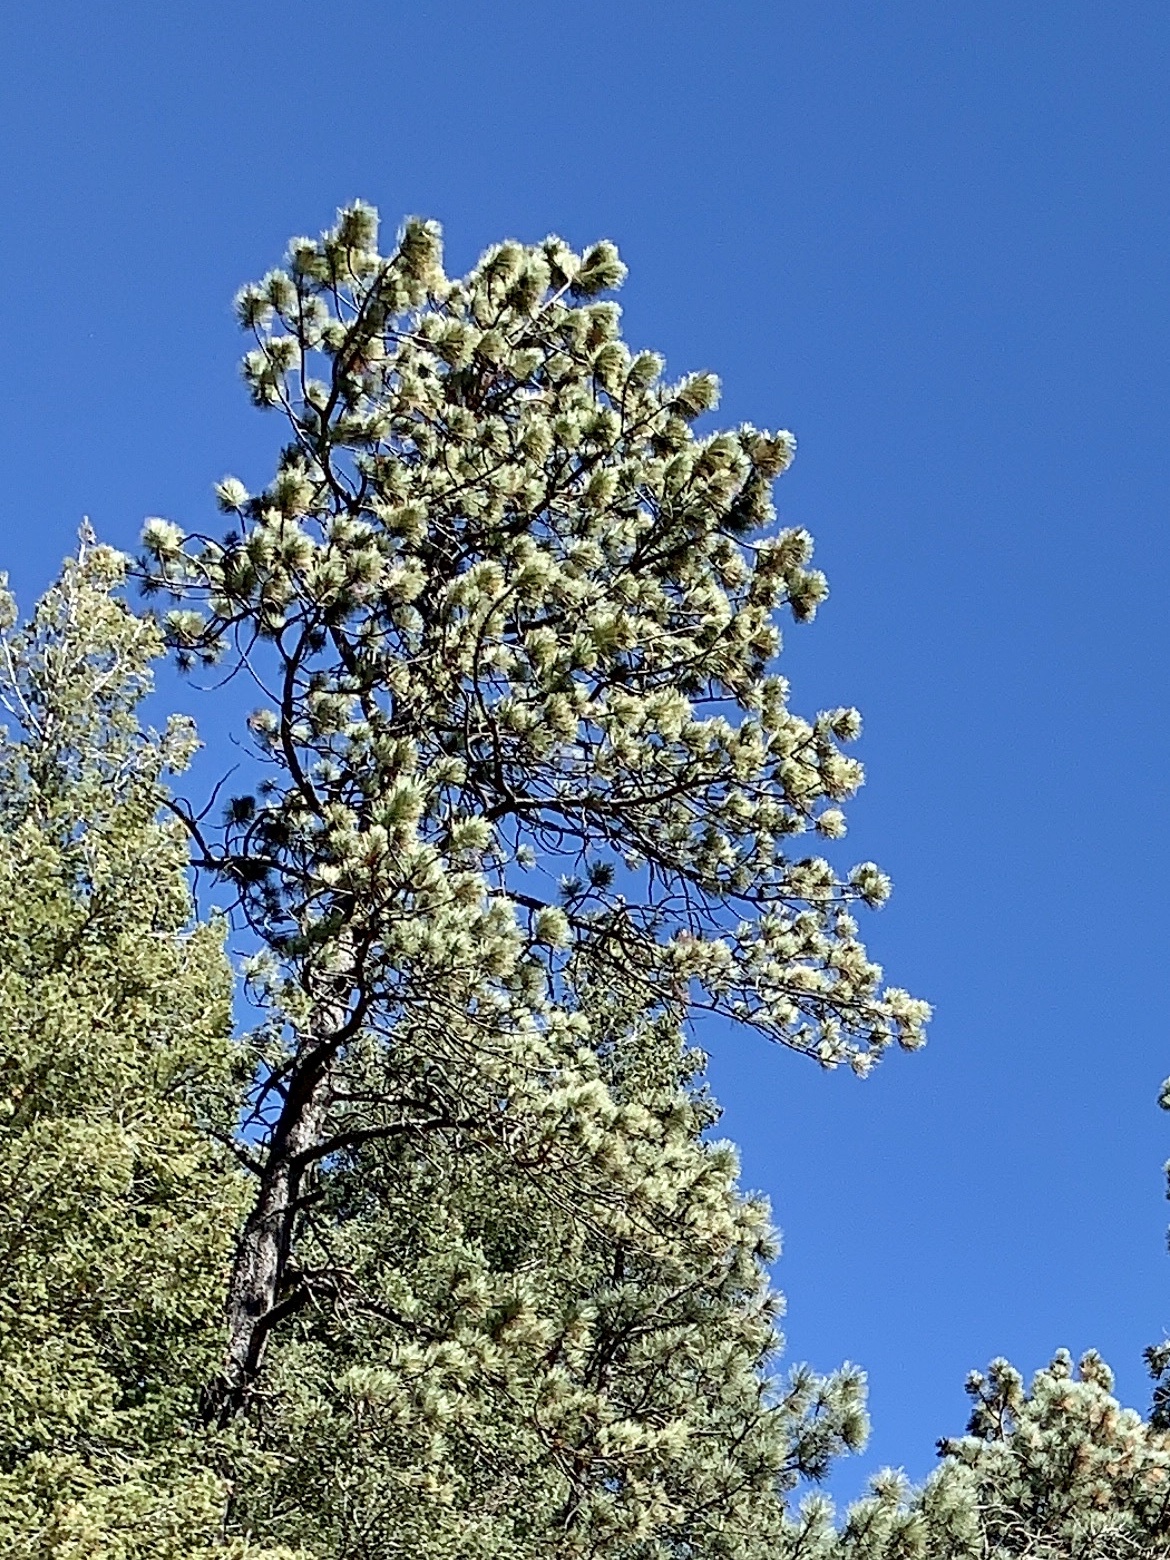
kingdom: Plantae
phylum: Tracheophyta
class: Pinopsida
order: Pinales
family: Pinaceae
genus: Pinus
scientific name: Pinus ponderosa
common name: Western yellow-pine
